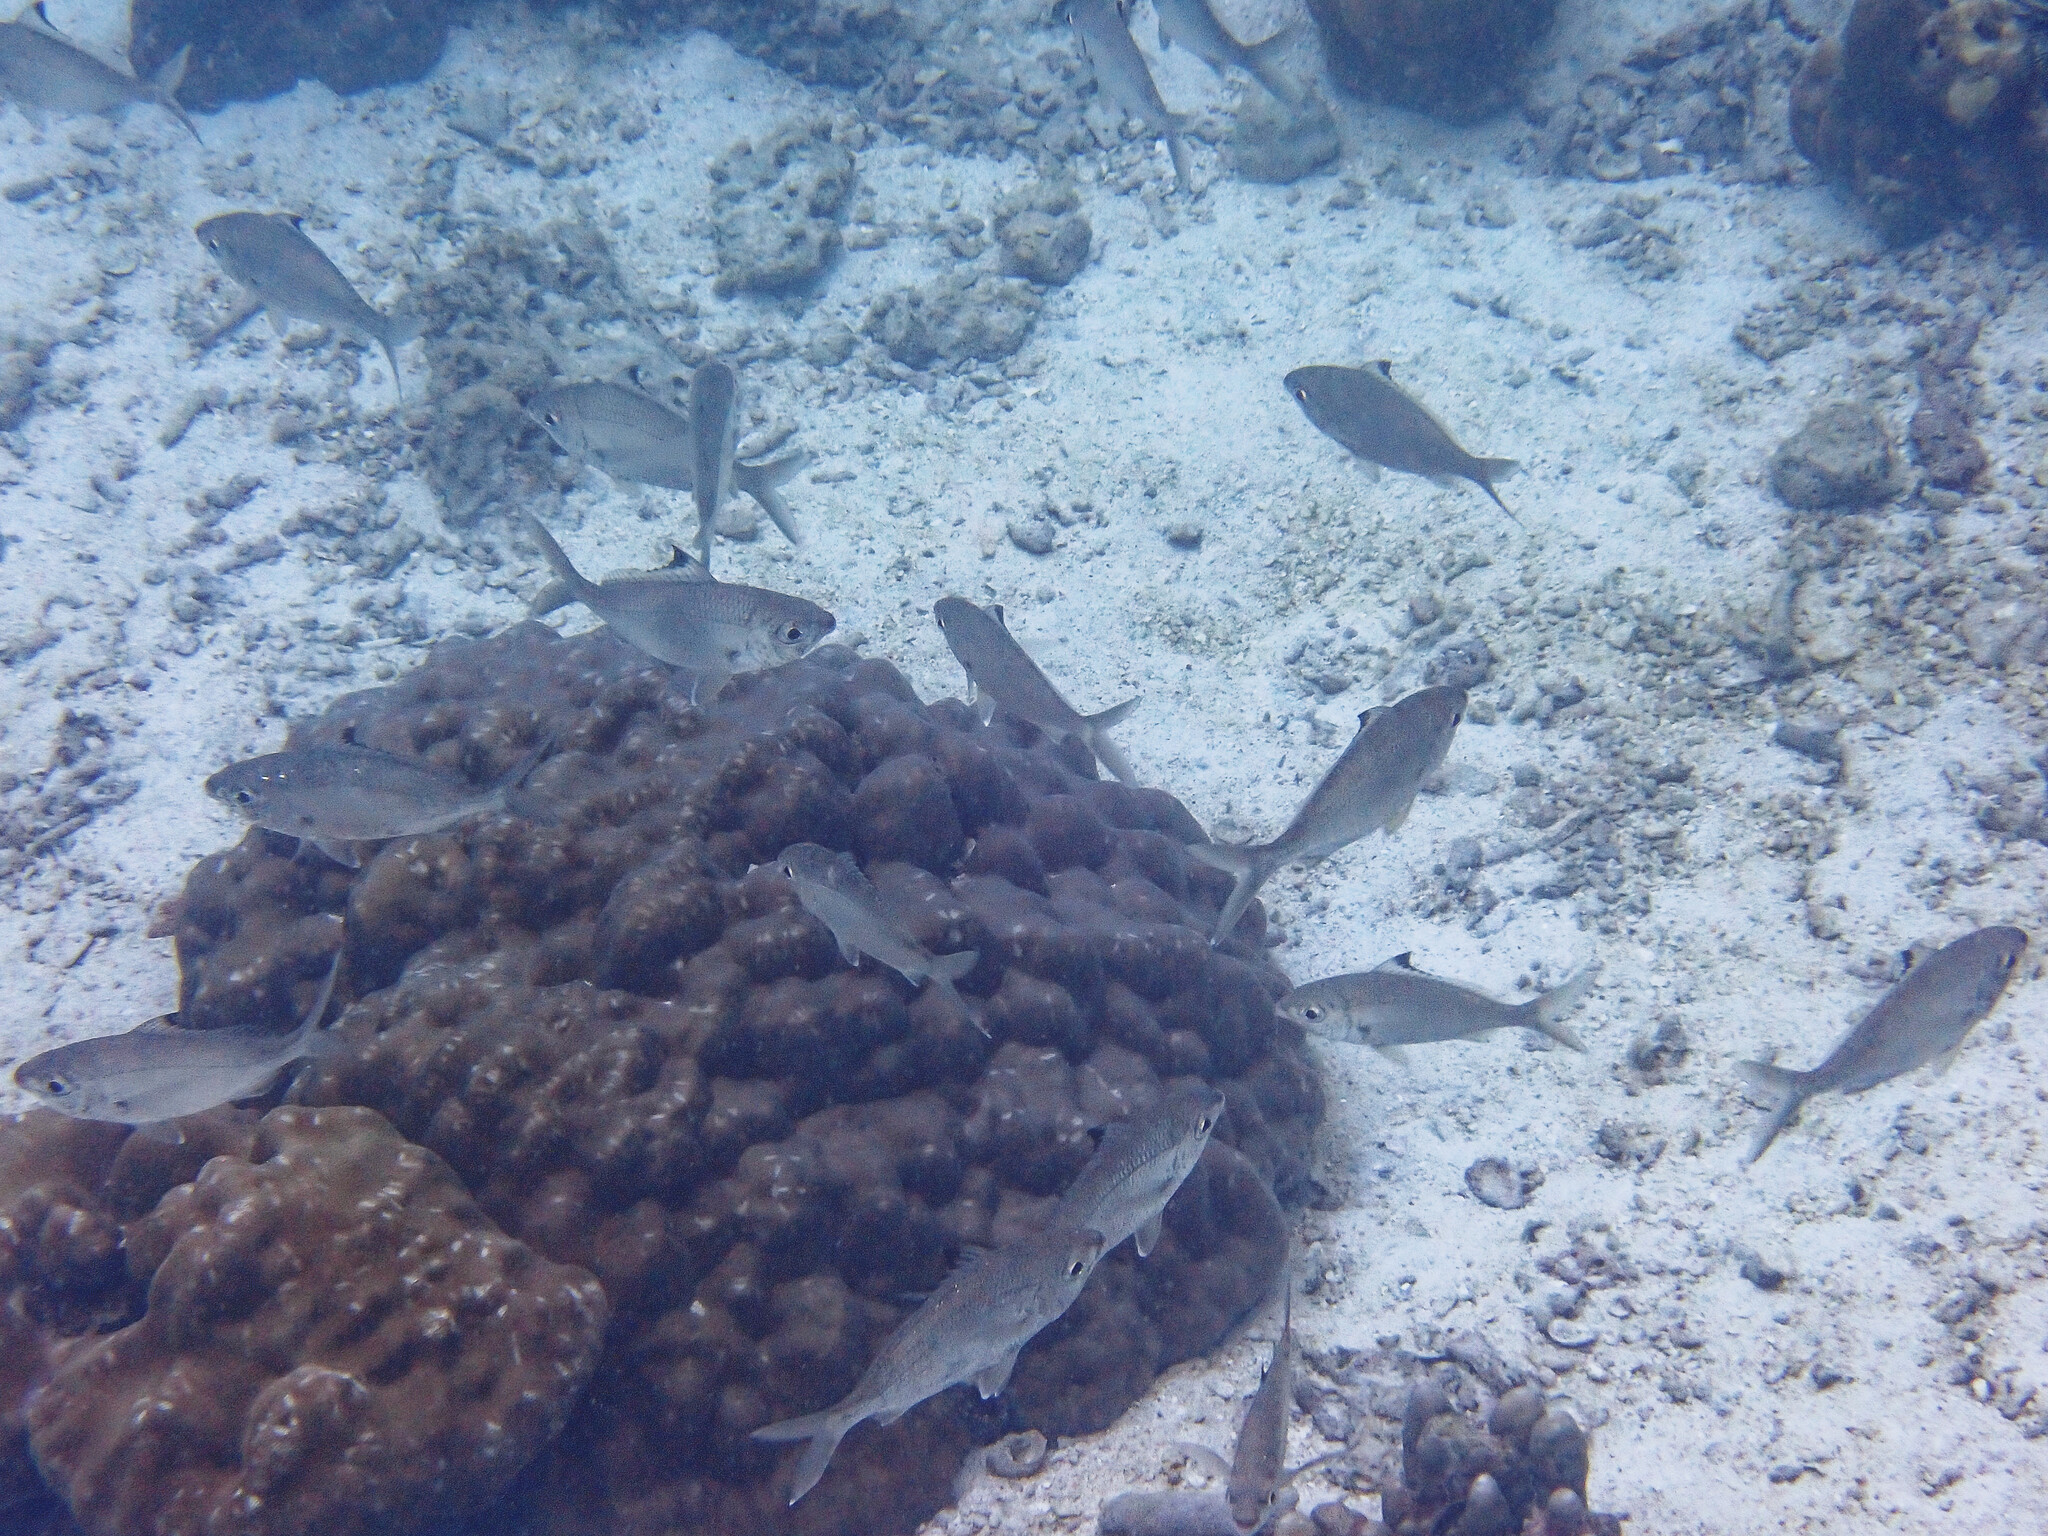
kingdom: Animalia
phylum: Chordata
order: Perciformes
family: Gerreidae
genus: Gerres
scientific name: Gerres oyena
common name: Common silver-biddy
